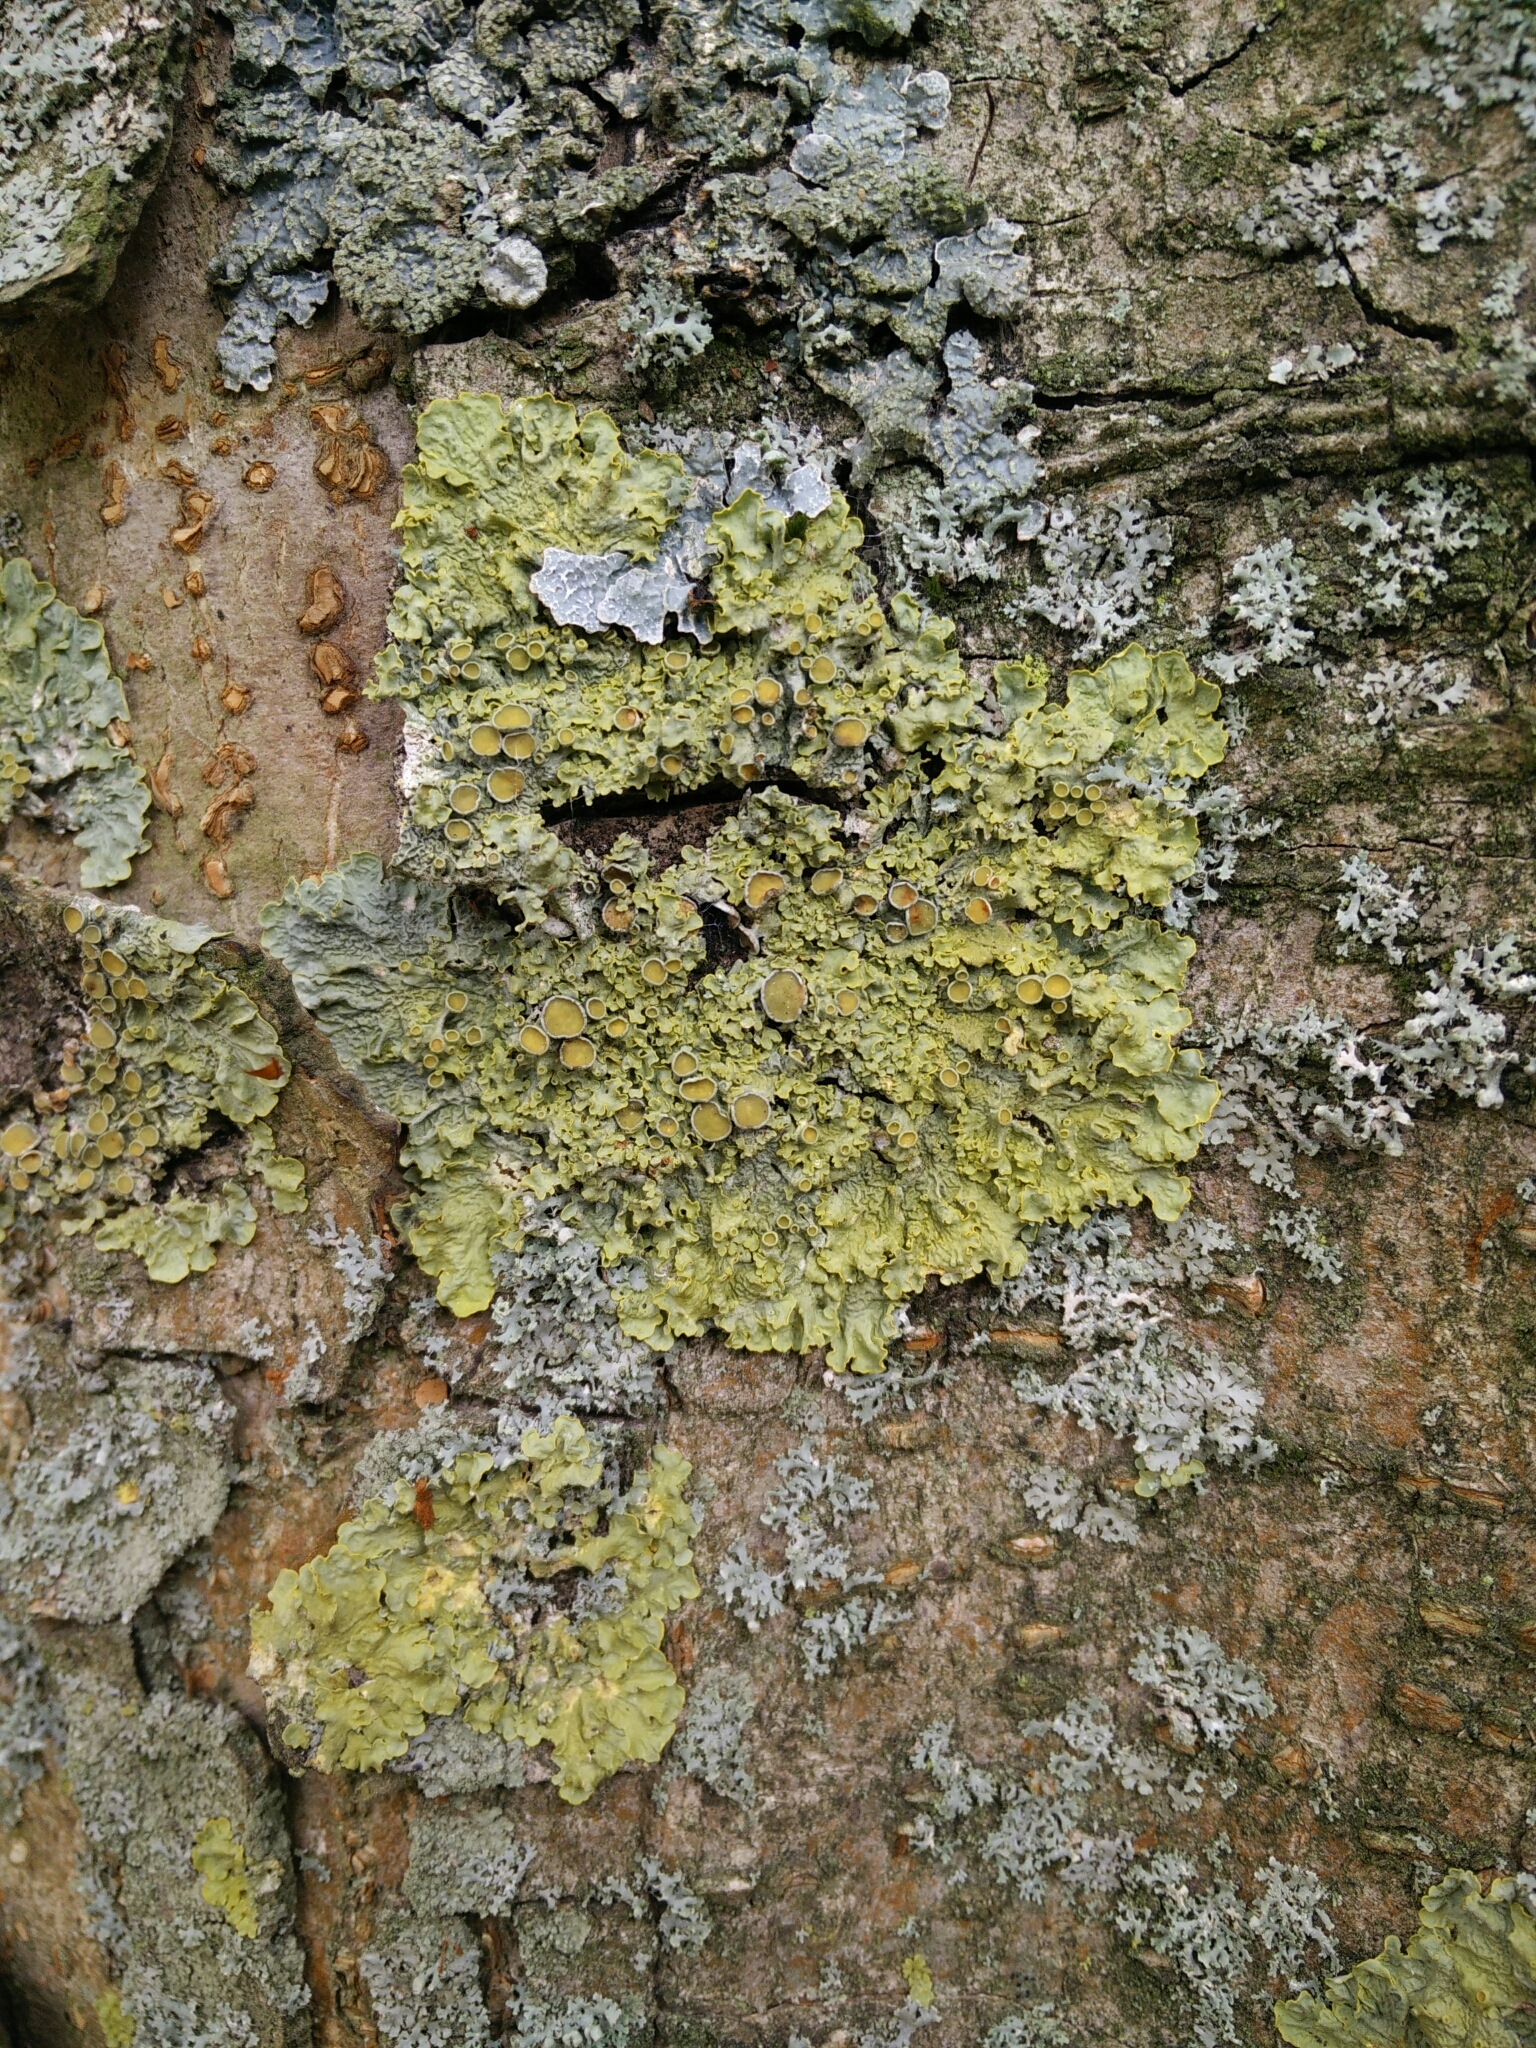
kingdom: Fungi
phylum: Ascomycota
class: Lecanoromycetes
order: Teloschistales
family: Teloschistaceae
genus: Xanthoria
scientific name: Xanthoria parietina
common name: Common orange lichen
